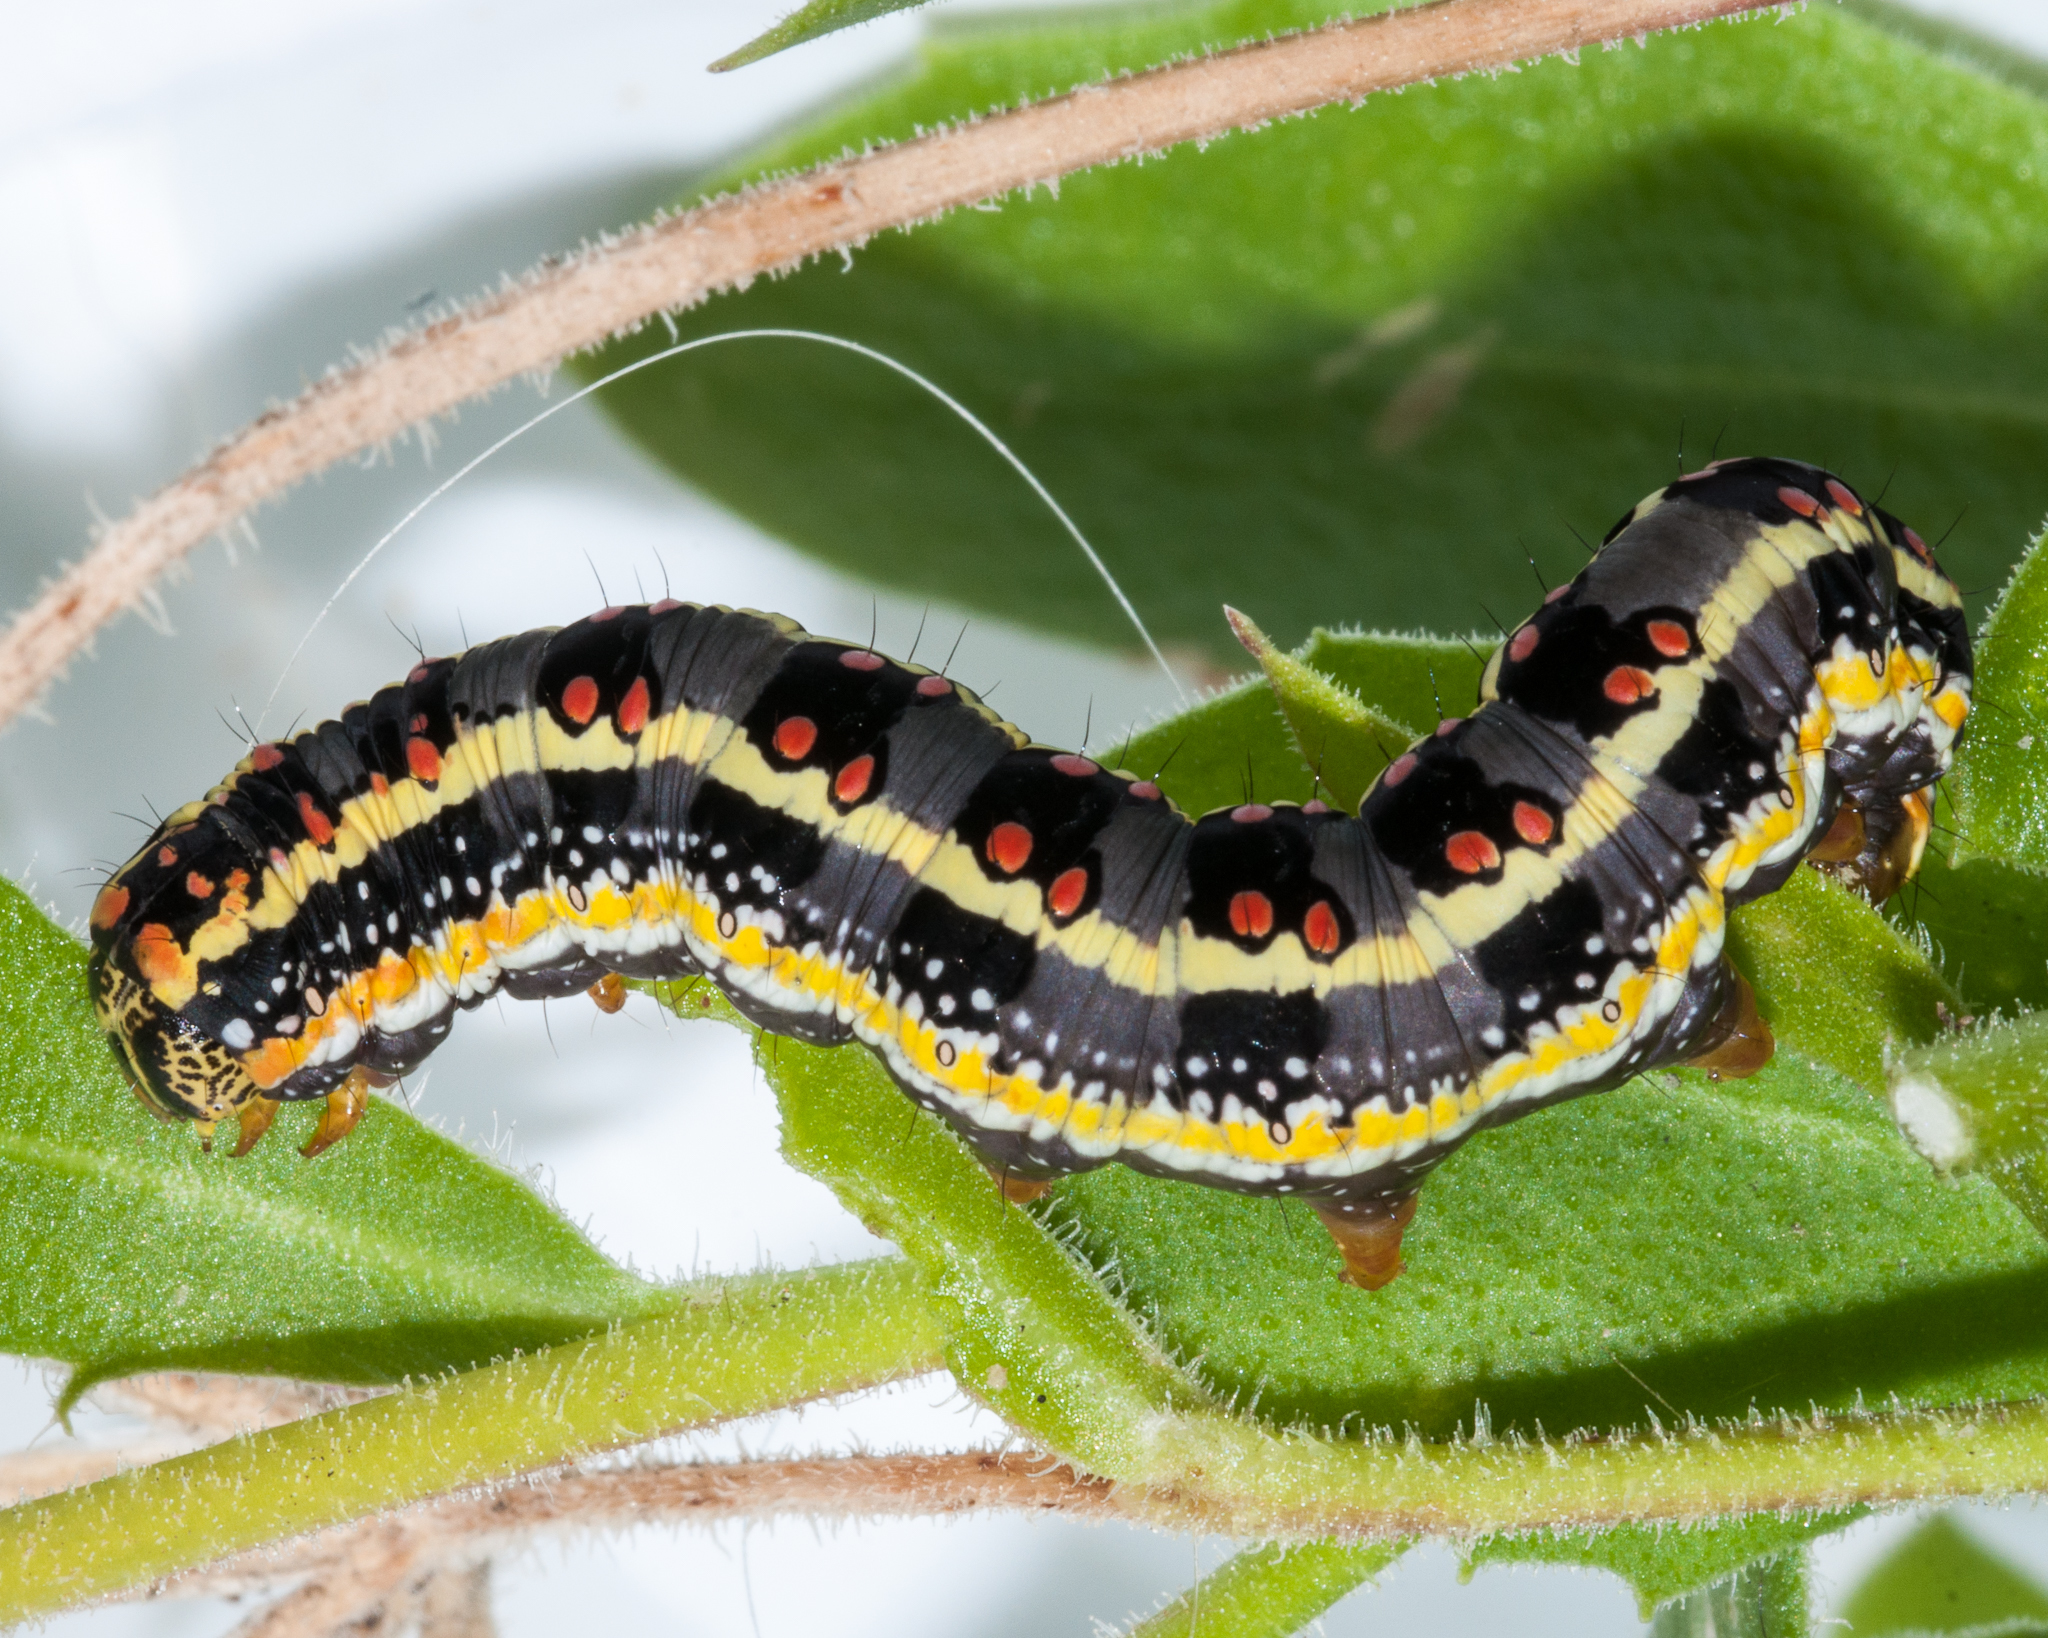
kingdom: Animalia
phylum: Arthropoda
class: Insecta
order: Lepidoptera
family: Noctuidae
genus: Cucullia
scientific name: Cucullia inaequalis
